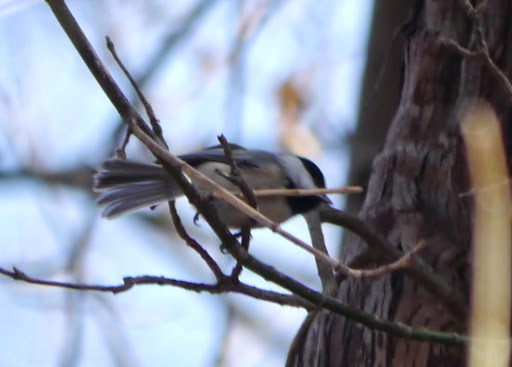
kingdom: Animalia
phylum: Chordata
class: Aves
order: Passeriformes
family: Paridae
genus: Poecile
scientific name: Poecile carolinensis
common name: Carolina chickadee
